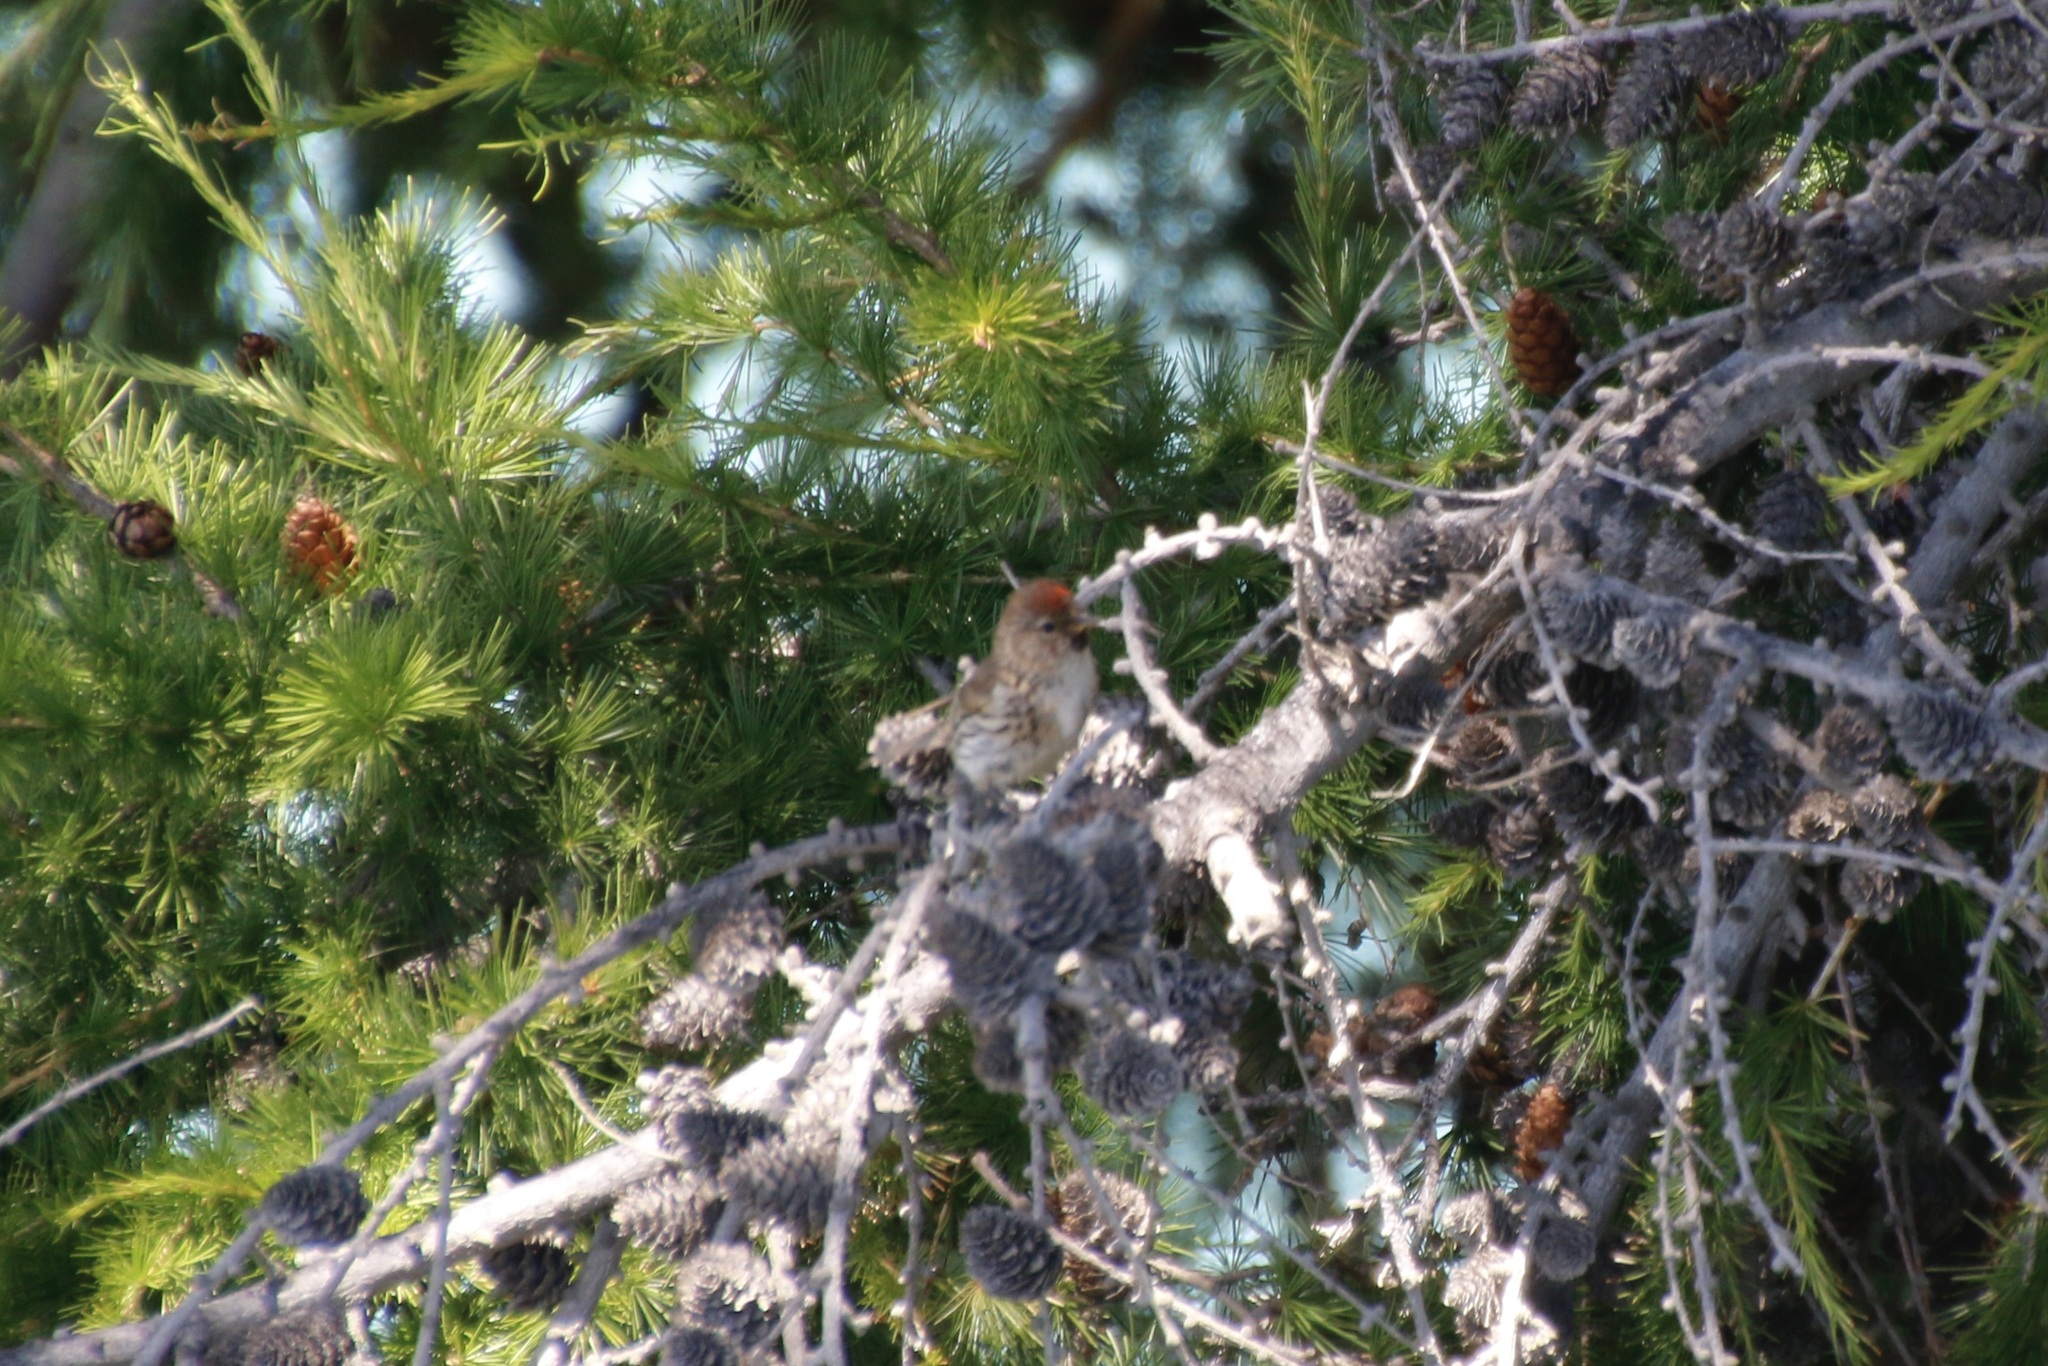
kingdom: Animalia
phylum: Chordata
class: Aves
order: Passeriformes
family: Fringillidae
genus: Acanthis
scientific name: Acanthis flammea
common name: Common redpoll
